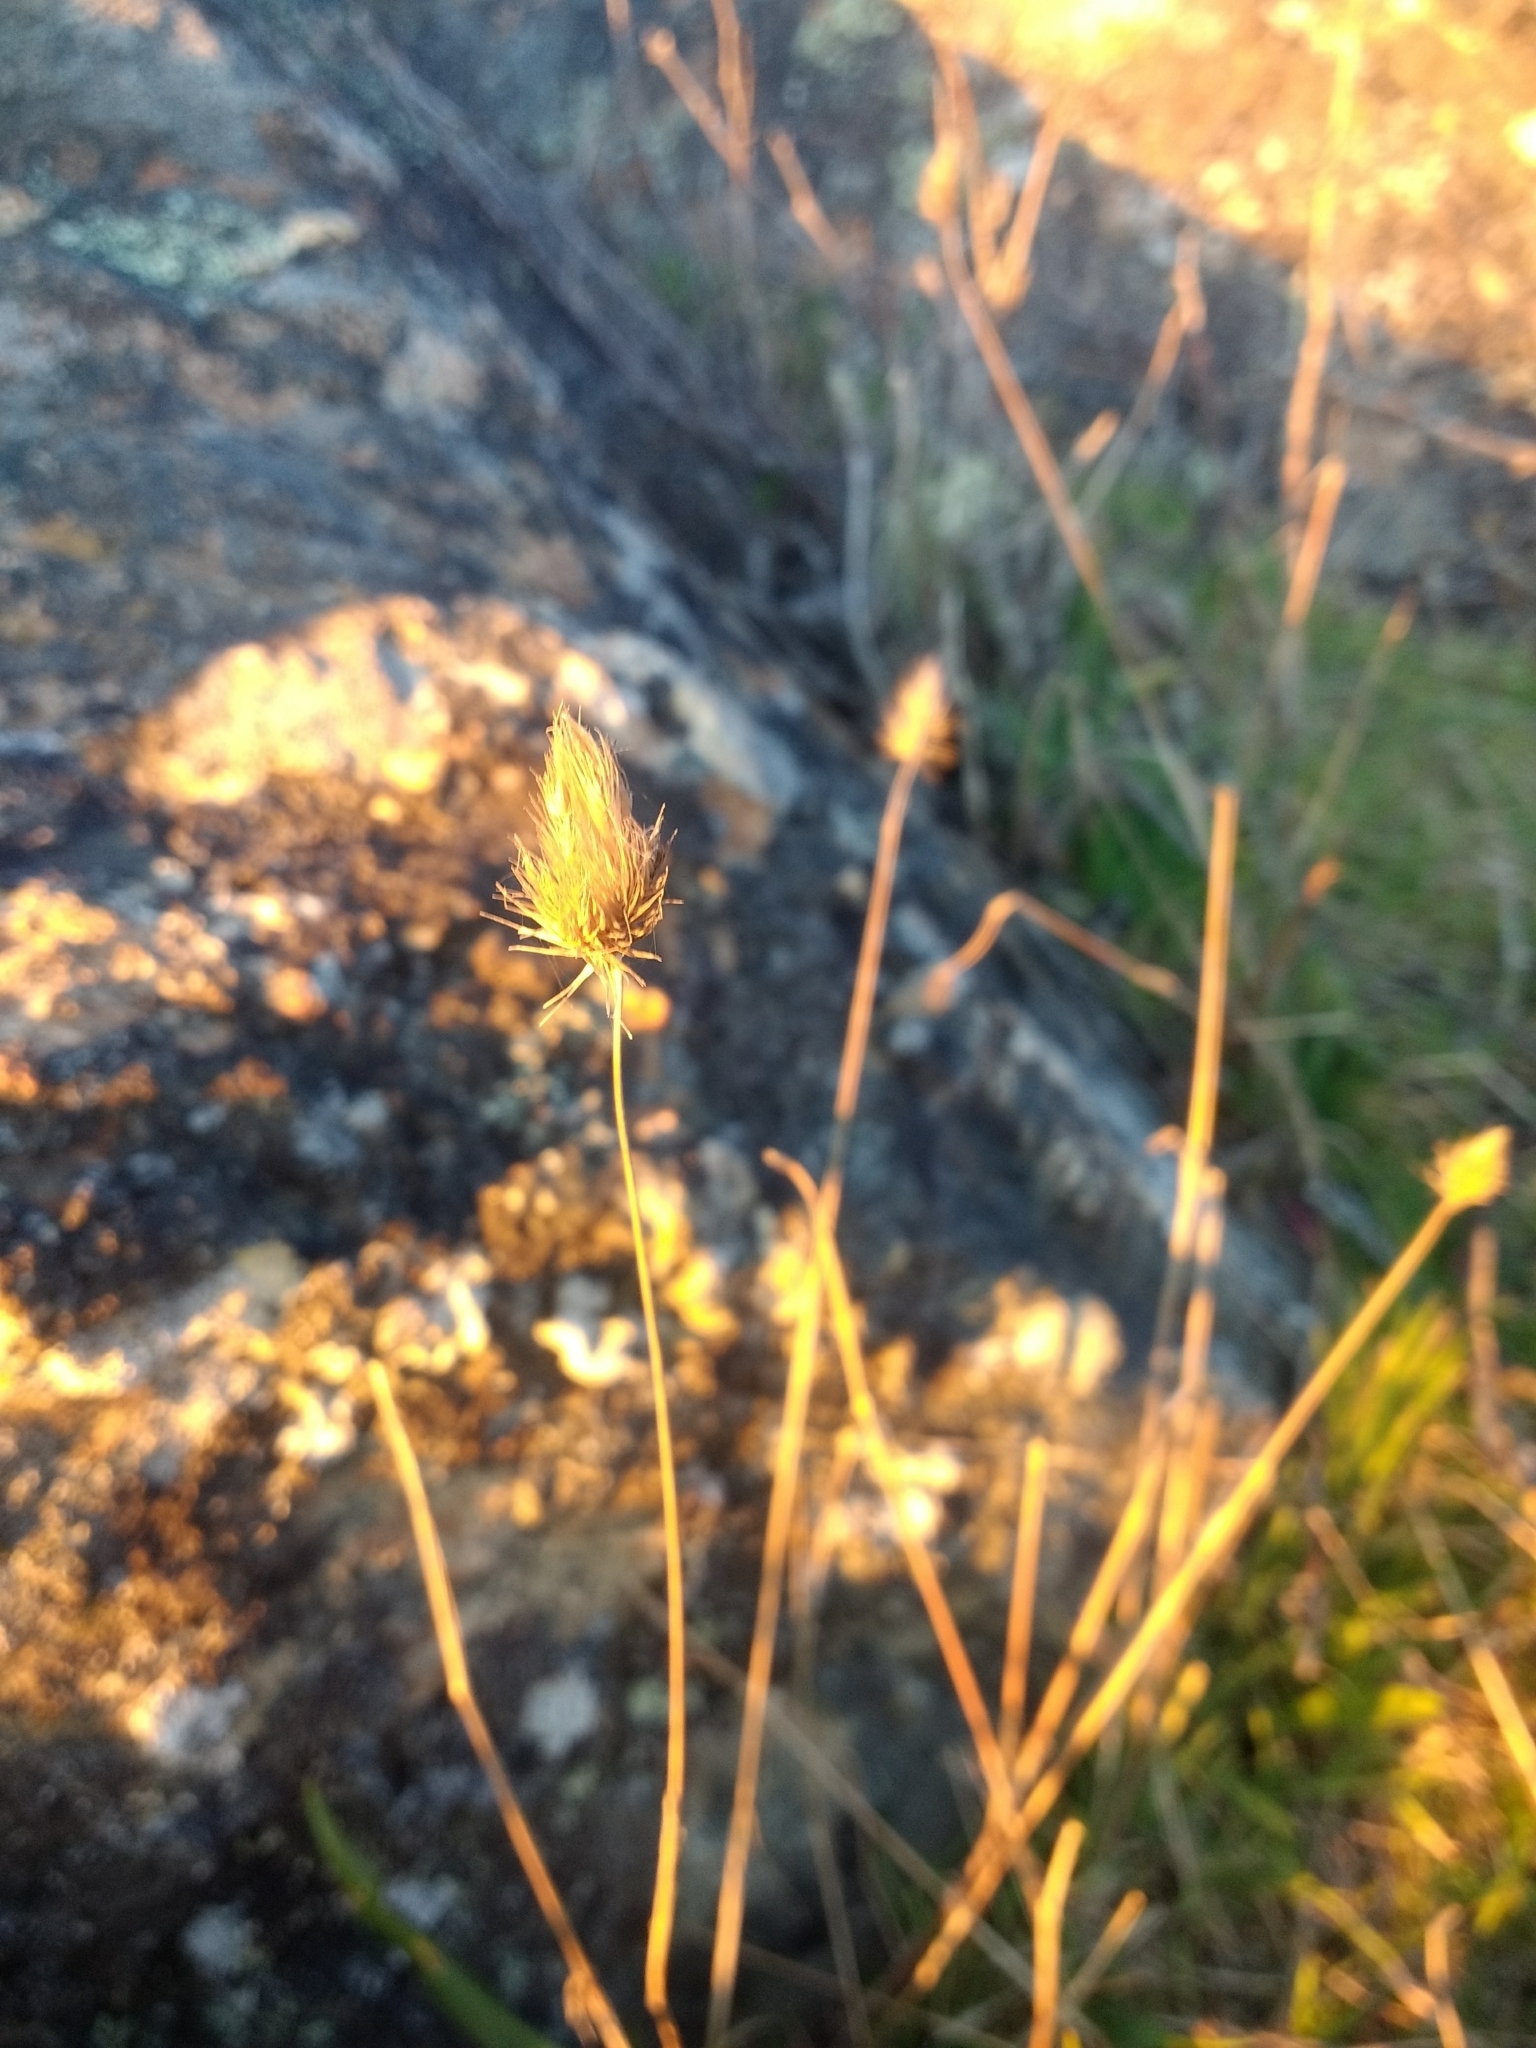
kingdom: Plantae
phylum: Tracheophyta
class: Liliopsida
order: Poales
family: Poaceae
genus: Cynosurus
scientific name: Cynosurus echinatus
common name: Rough dog's-tail
